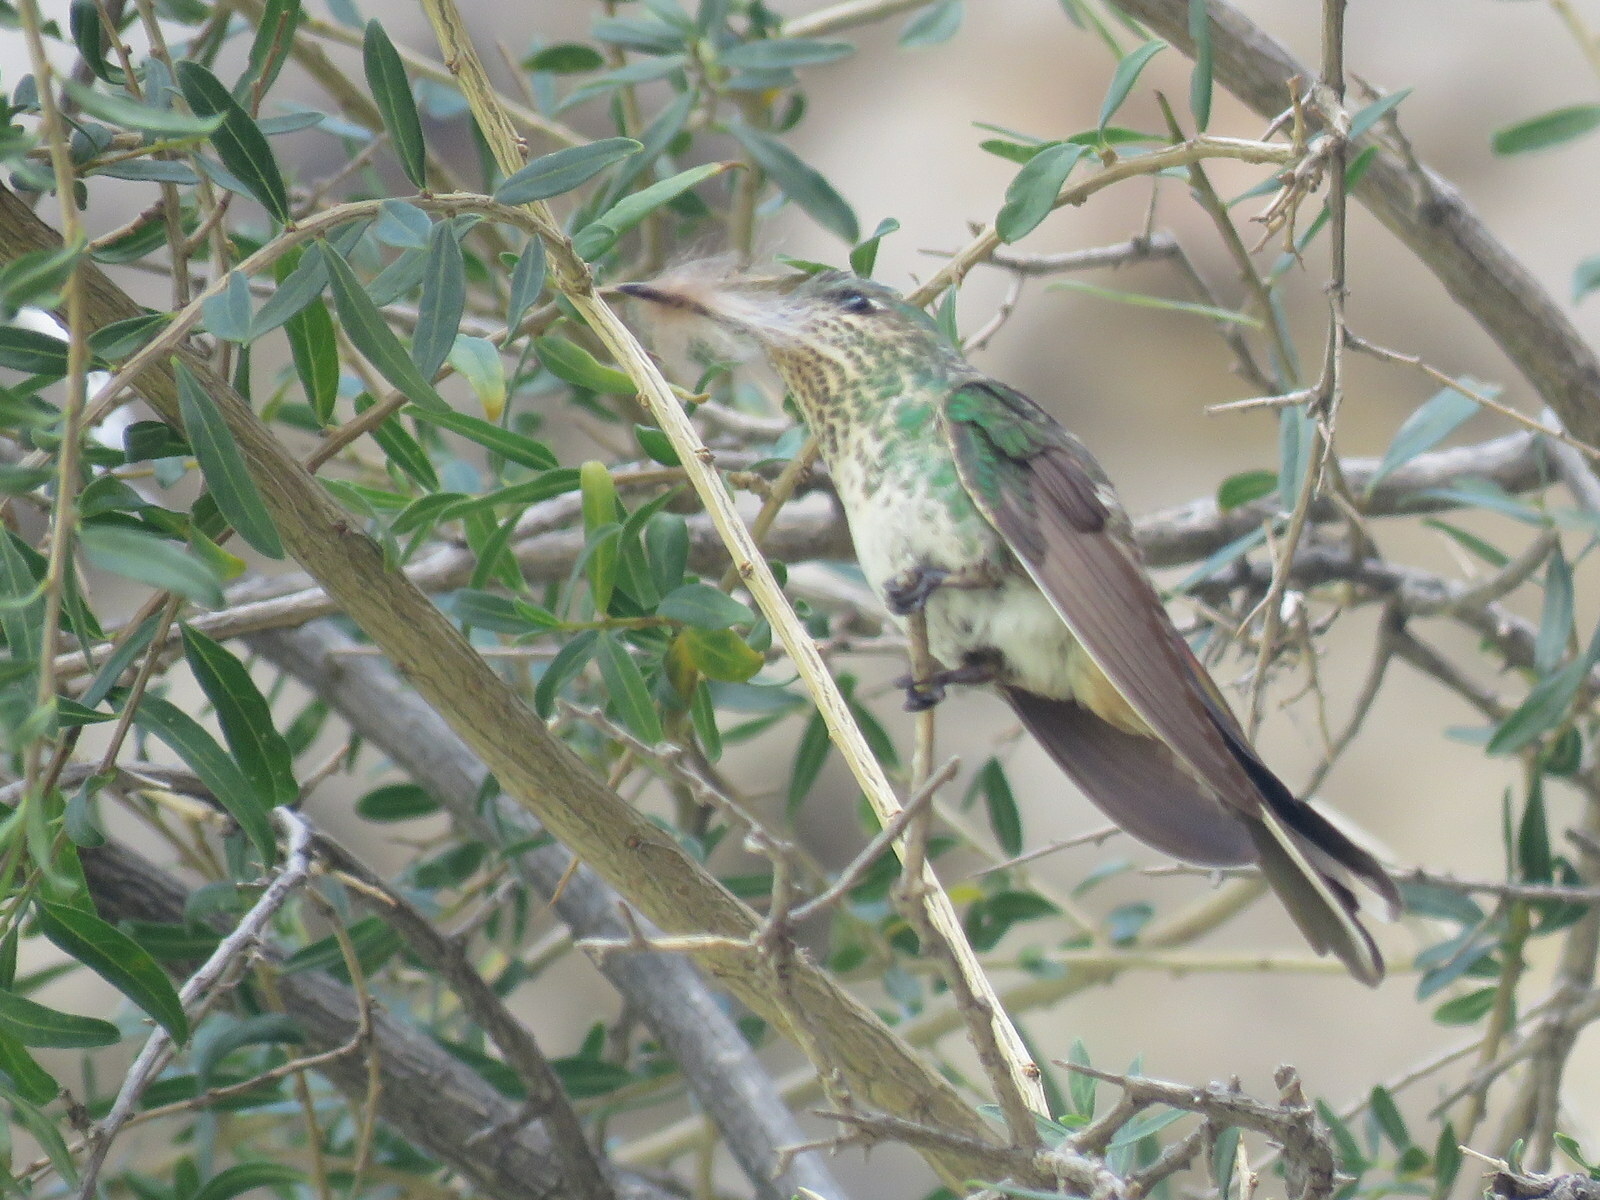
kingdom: Animalia
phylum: Chordata
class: Aves
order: Apodiformes
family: Trochilidae
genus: Sappho
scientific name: Sappho sparganurus
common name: Red-tailed comet
